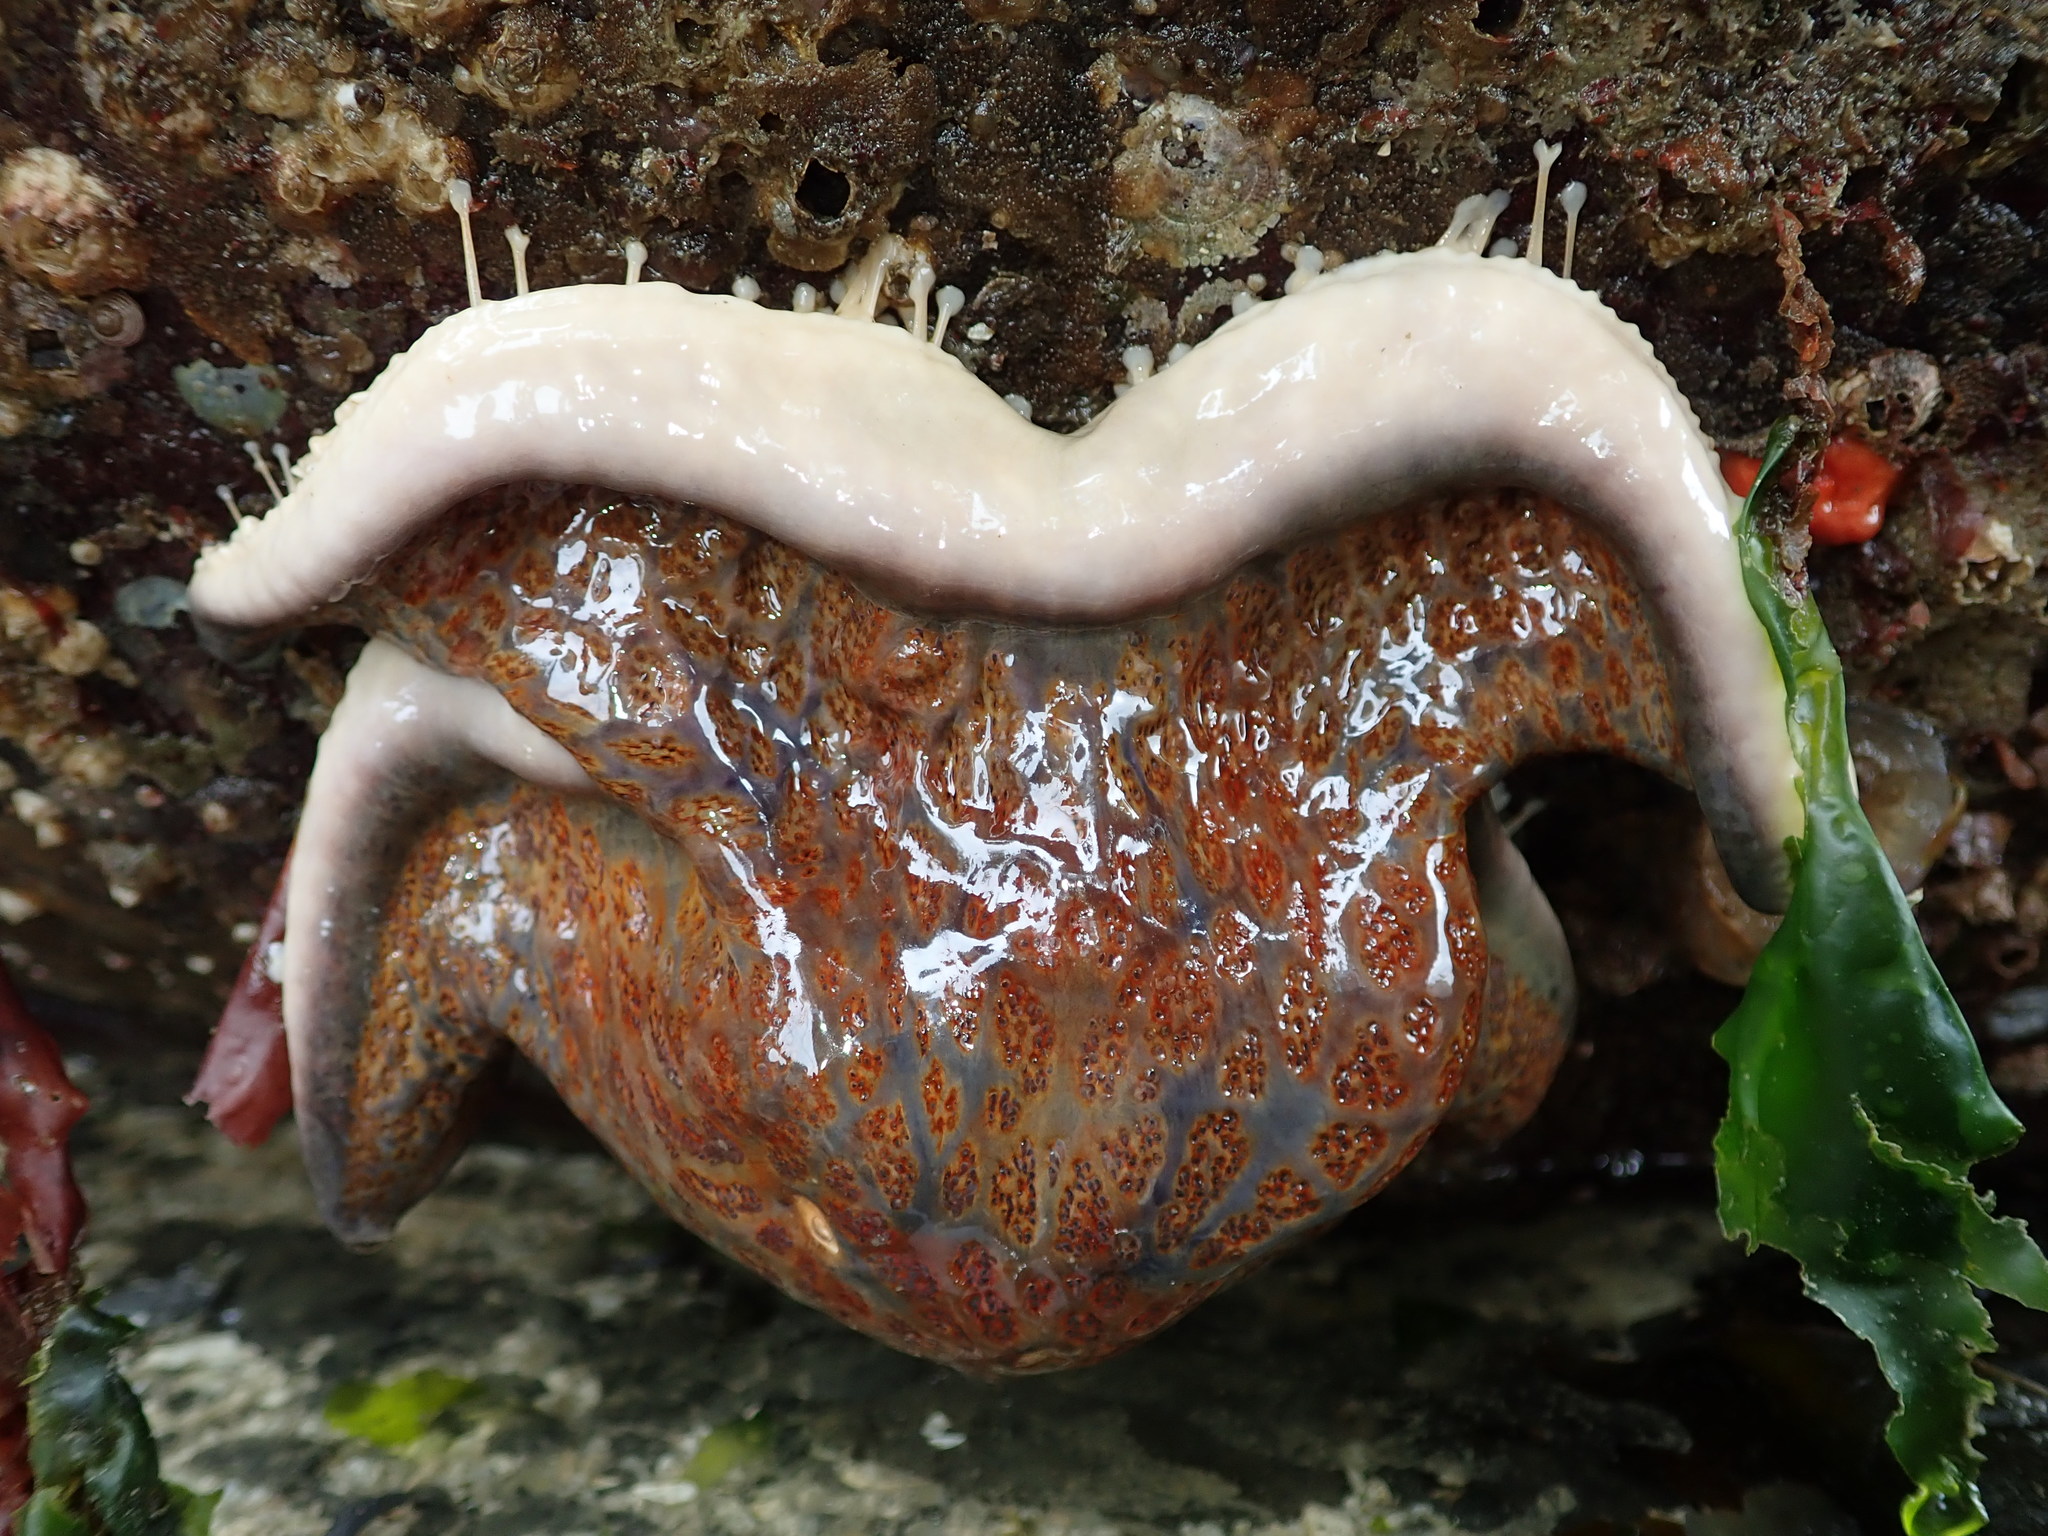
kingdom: Animalia
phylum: Echinodermata
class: Asteroidea
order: Valvatida
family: Asteropseidae
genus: Dermasterias
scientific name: Dermasterias imbricata
